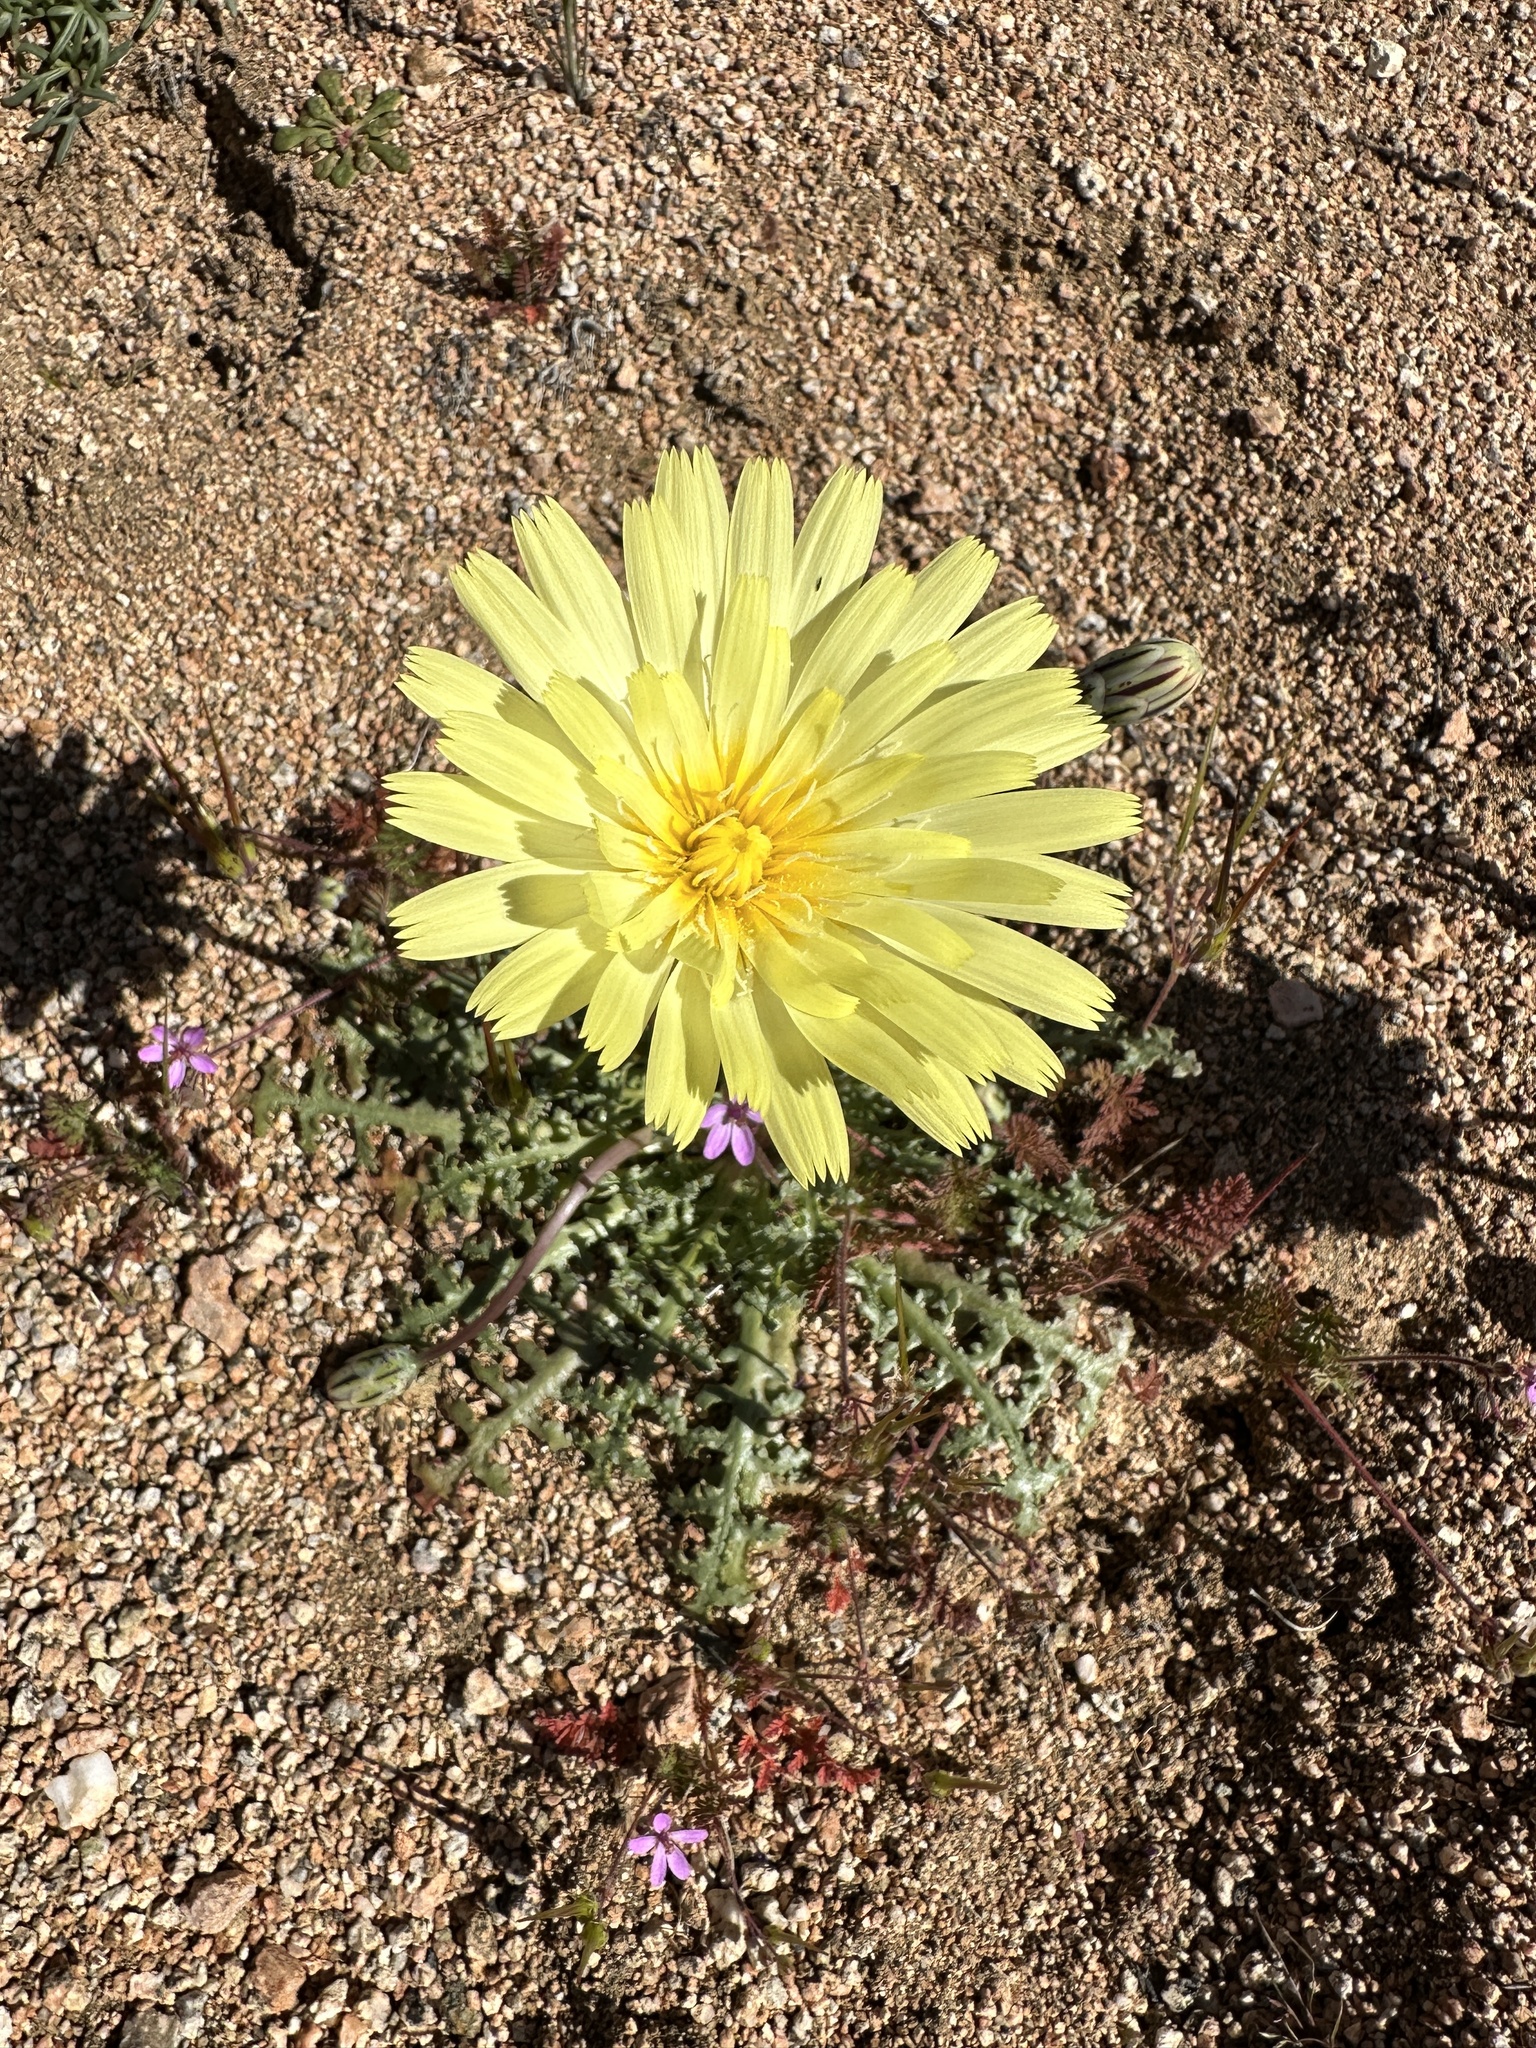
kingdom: Plantae
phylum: Tracheophyta
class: Magnoliopsida
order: Asterales
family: Asteraceae
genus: Anisocoma
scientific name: Anisocoma acaulis
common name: Scalebud
